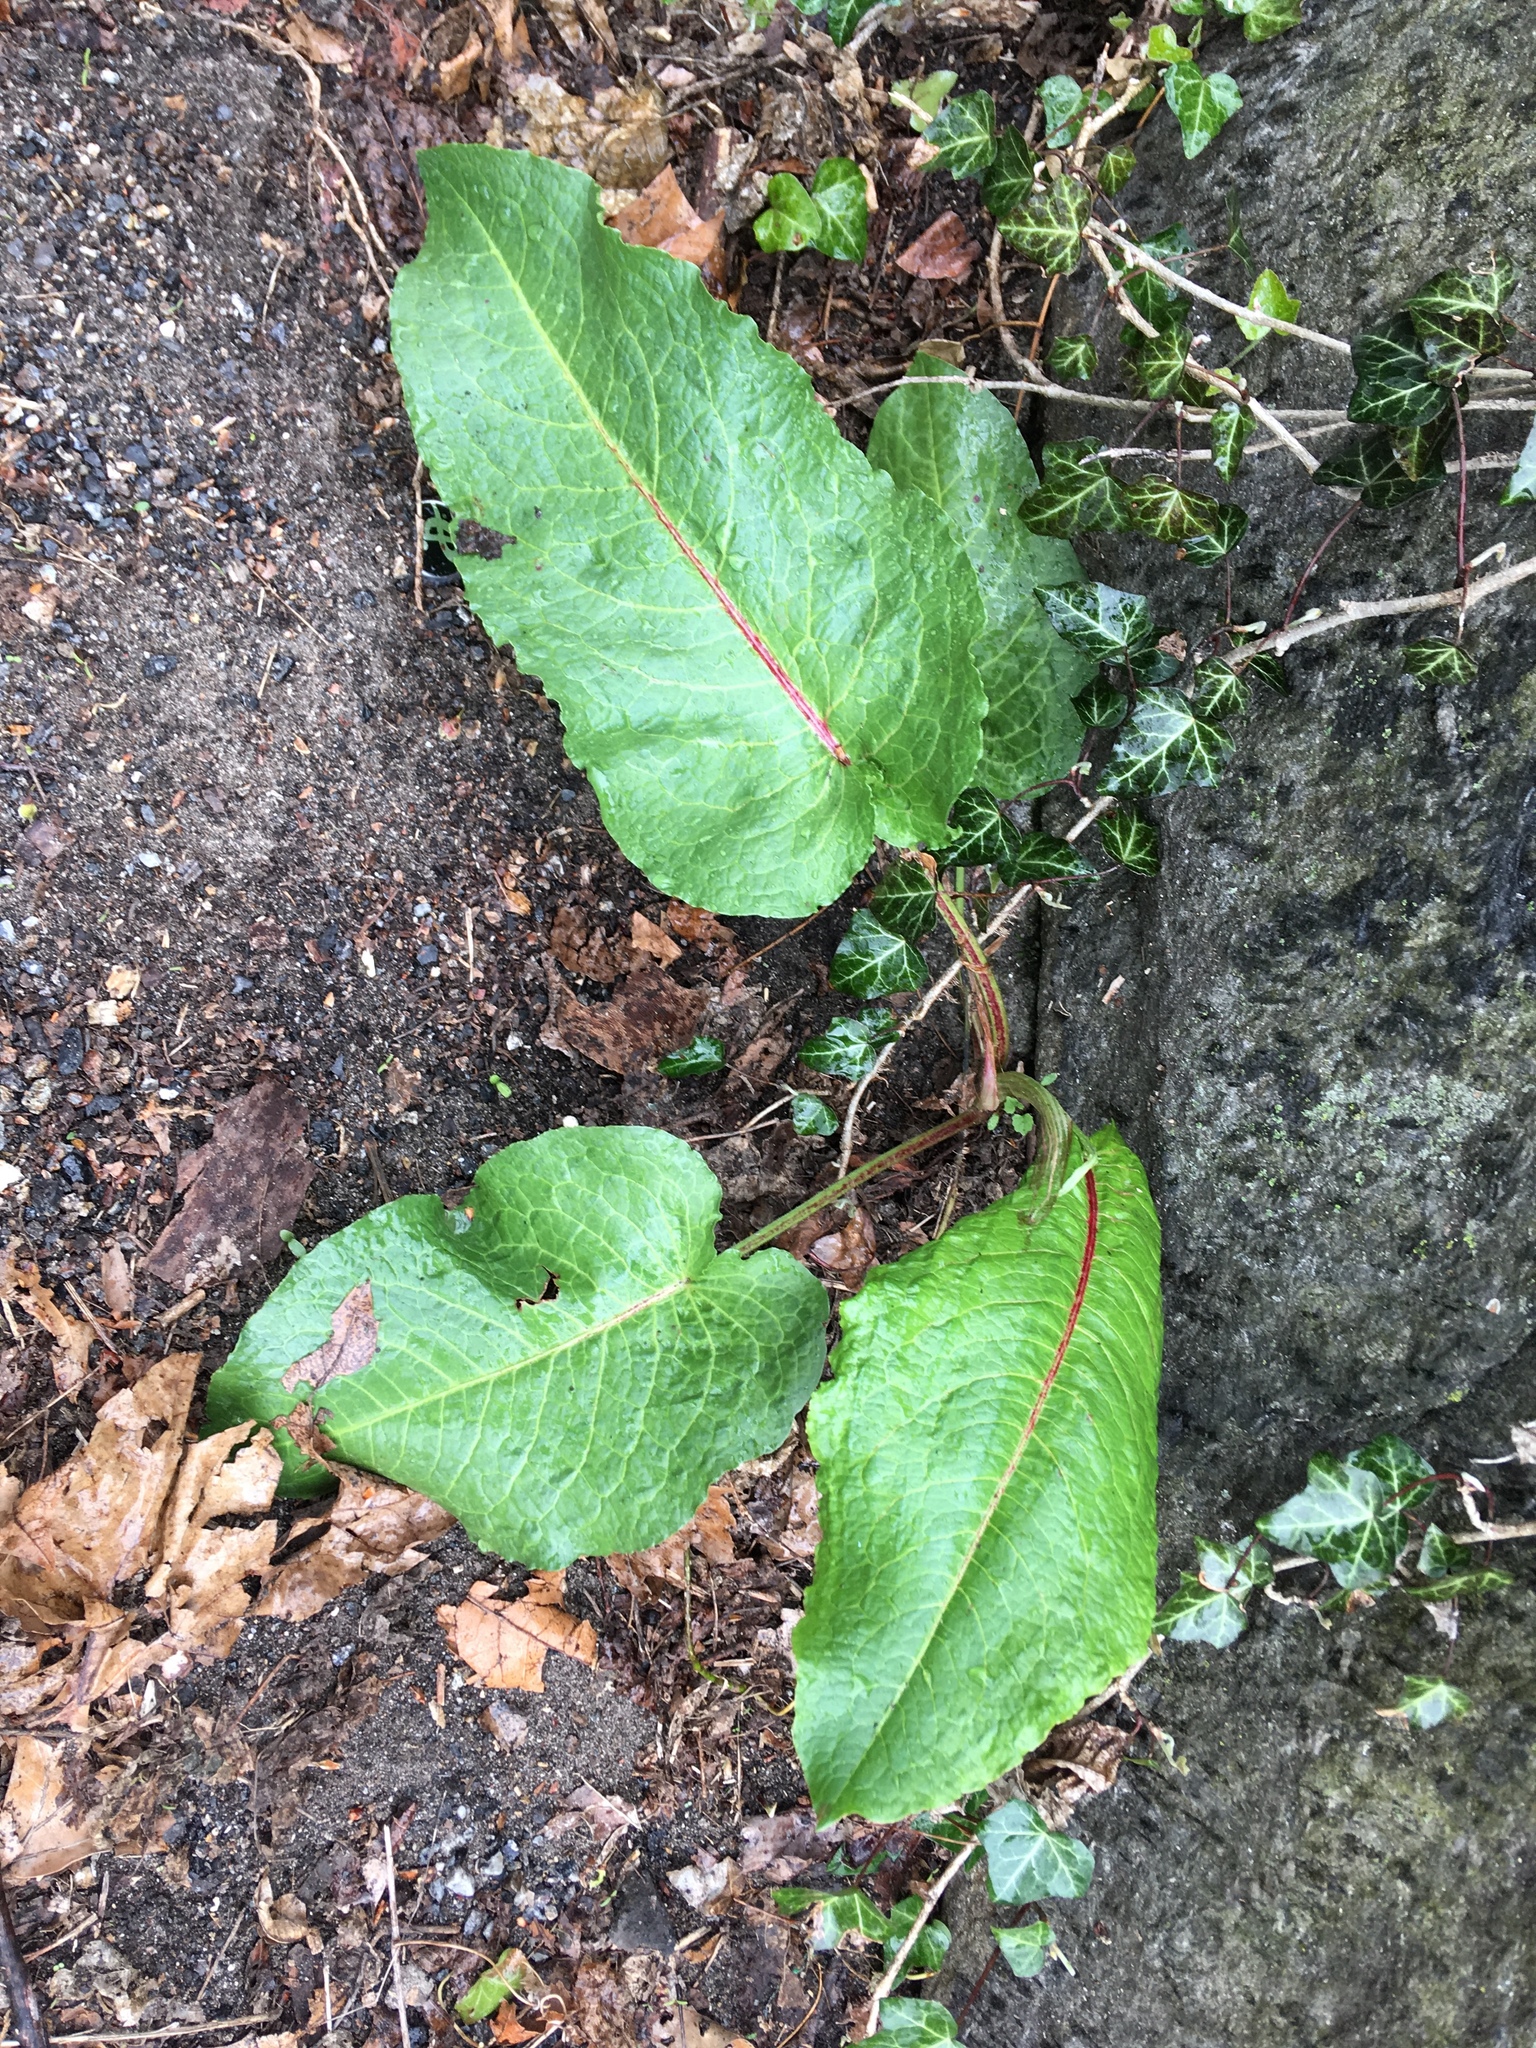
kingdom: Plantae
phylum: Tracheophyta
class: Magnoliopsida
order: Caryophyllales
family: Polygonaceae
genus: Rumex
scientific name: Rumex obtusifolius
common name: Bitter dock
